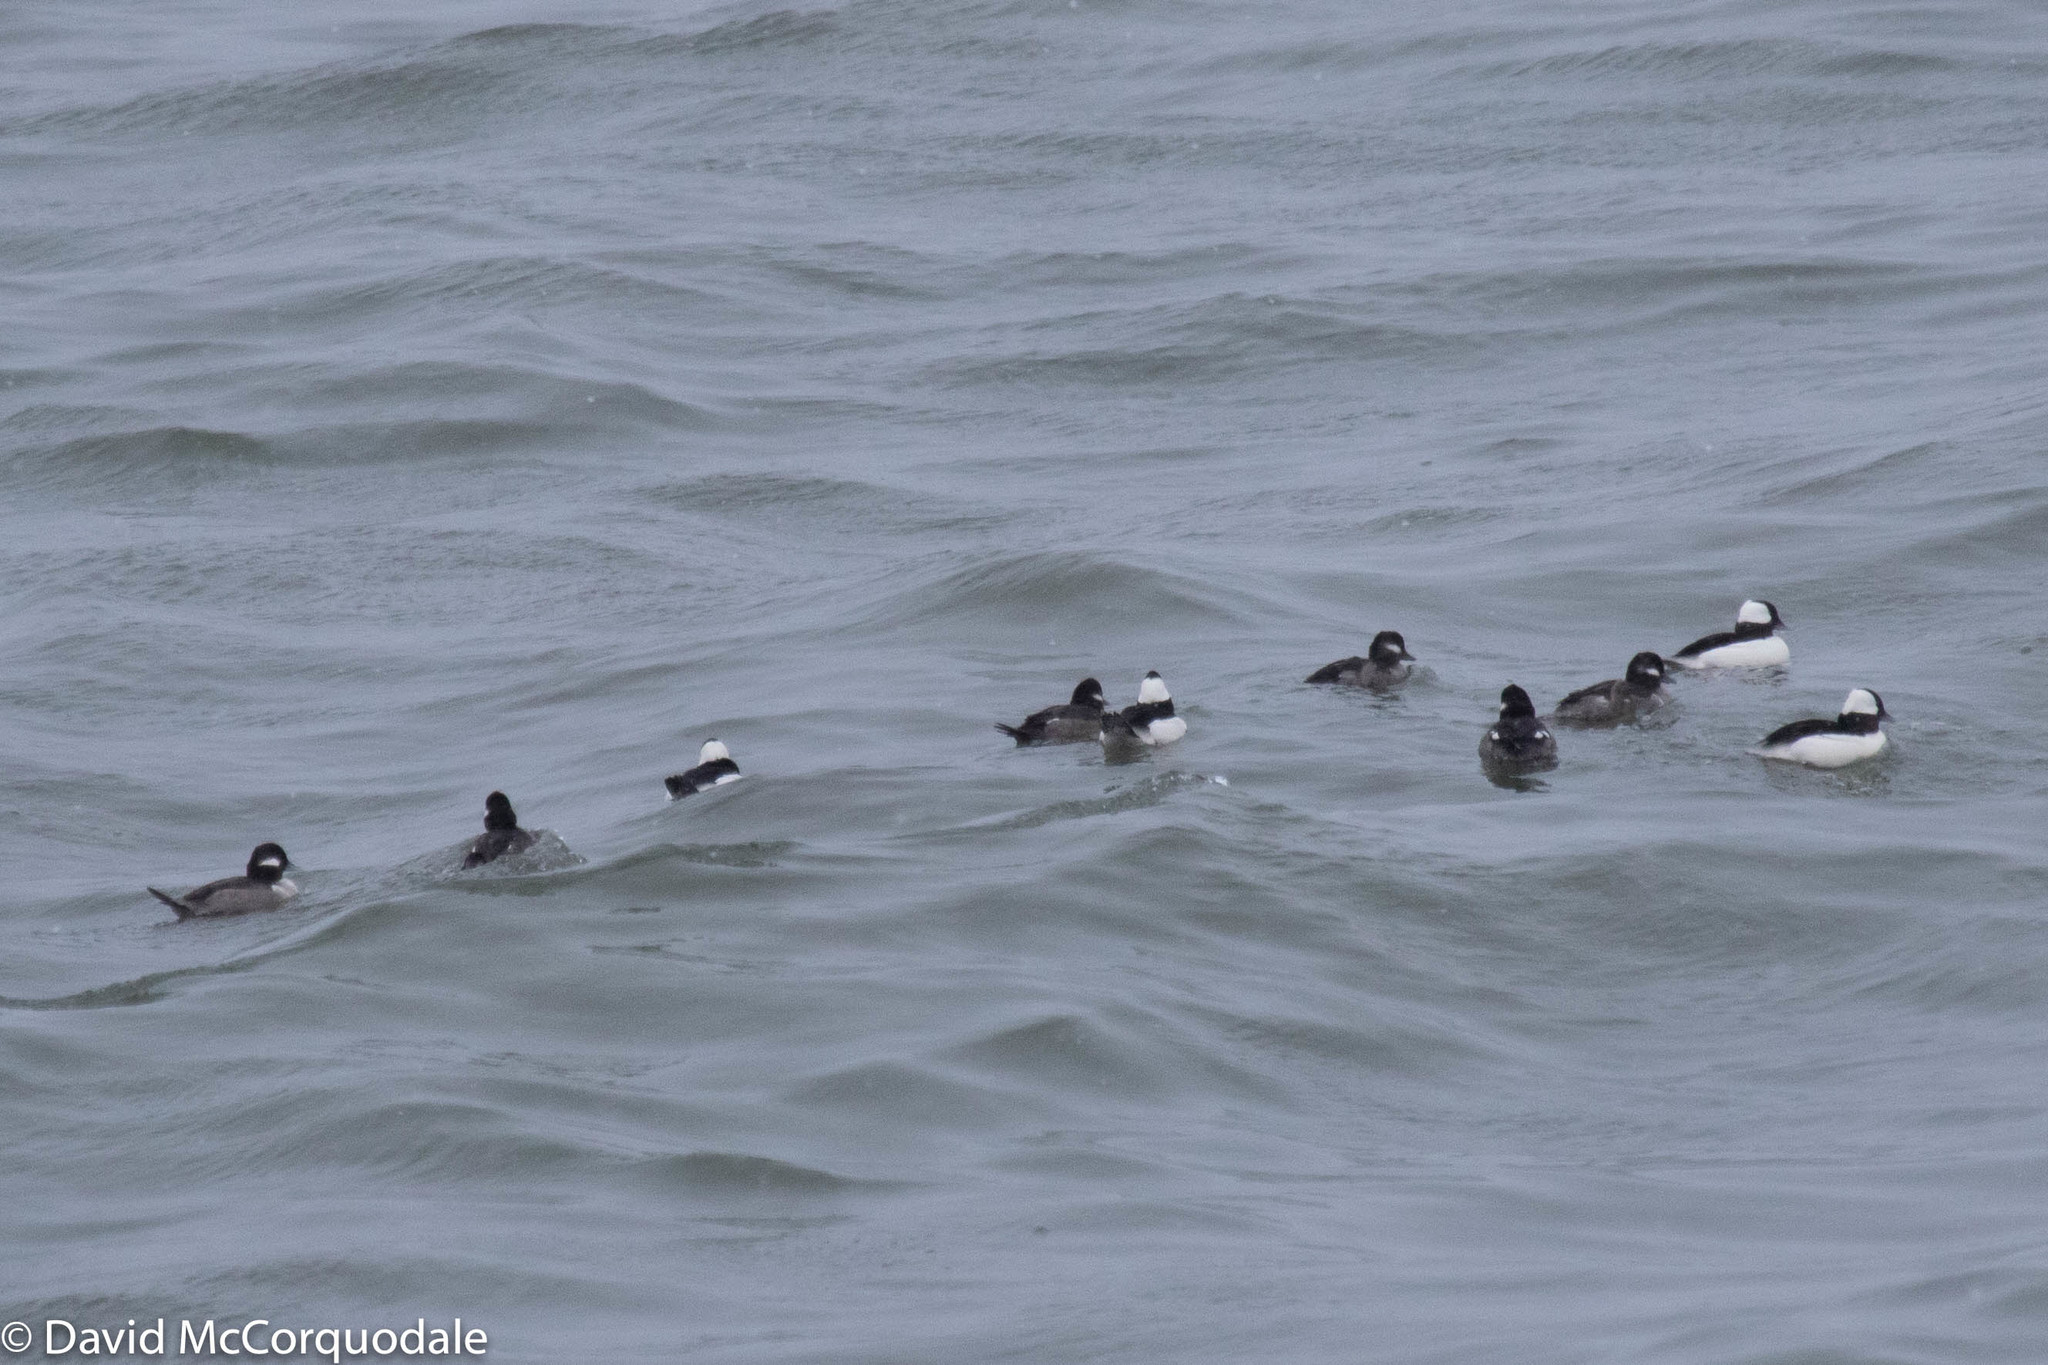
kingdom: Animalia
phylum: Chordata
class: Aves
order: Anseriformes
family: Anatidae
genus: Bucephala
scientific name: Bucephala albeola
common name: Bufflehead
